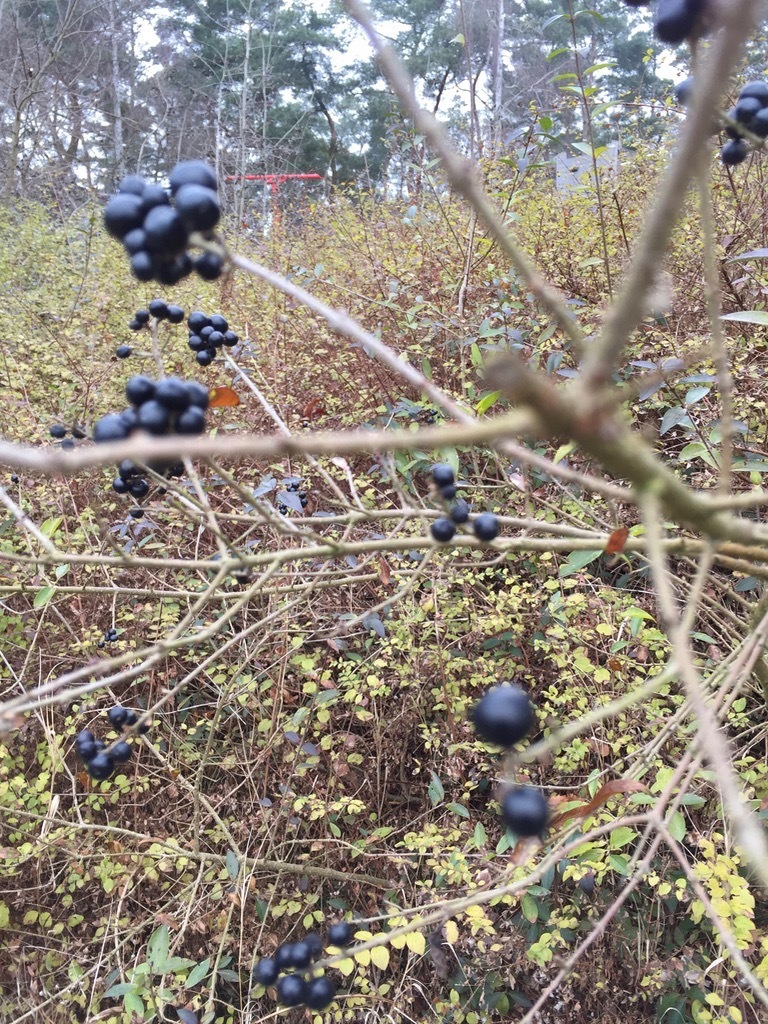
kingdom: Plantae
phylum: Tracheophyta
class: Magnoliopsida
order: Lamiales
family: Oleaceae
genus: Ligustrum
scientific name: Ligustrum vulgare
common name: Wild privet
